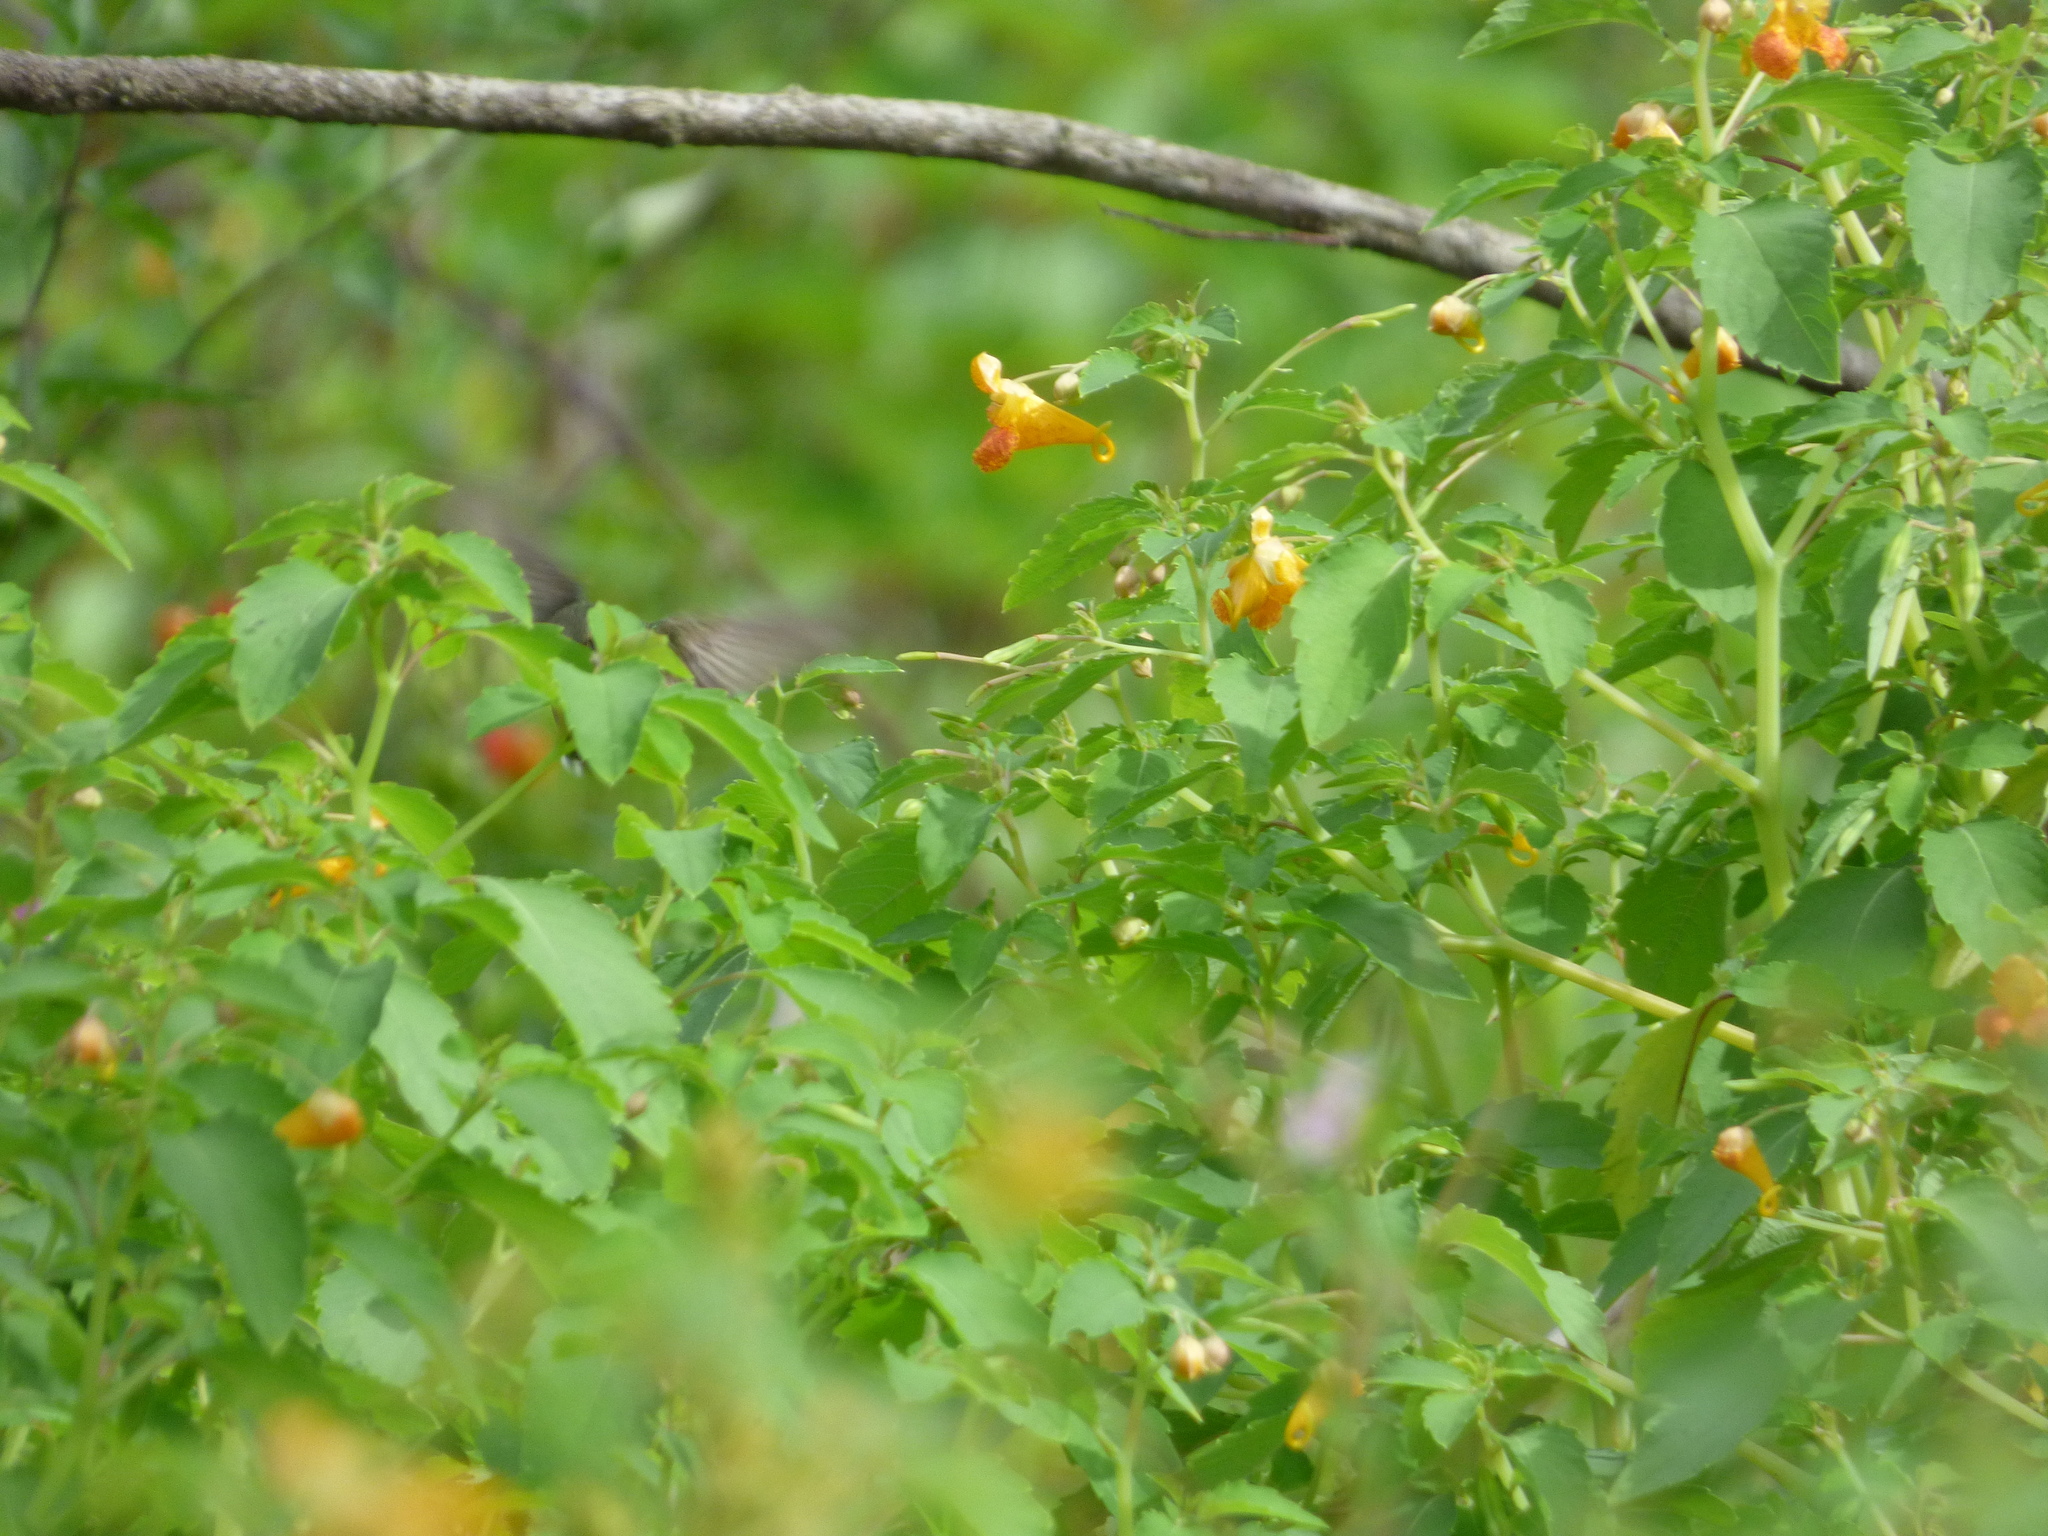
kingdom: Animalia
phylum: Chordata
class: Aves
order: Apodiformes
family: Trochilidae
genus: Archilochus
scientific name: Archilochus colubris
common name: Ruby-throated hummingbird
